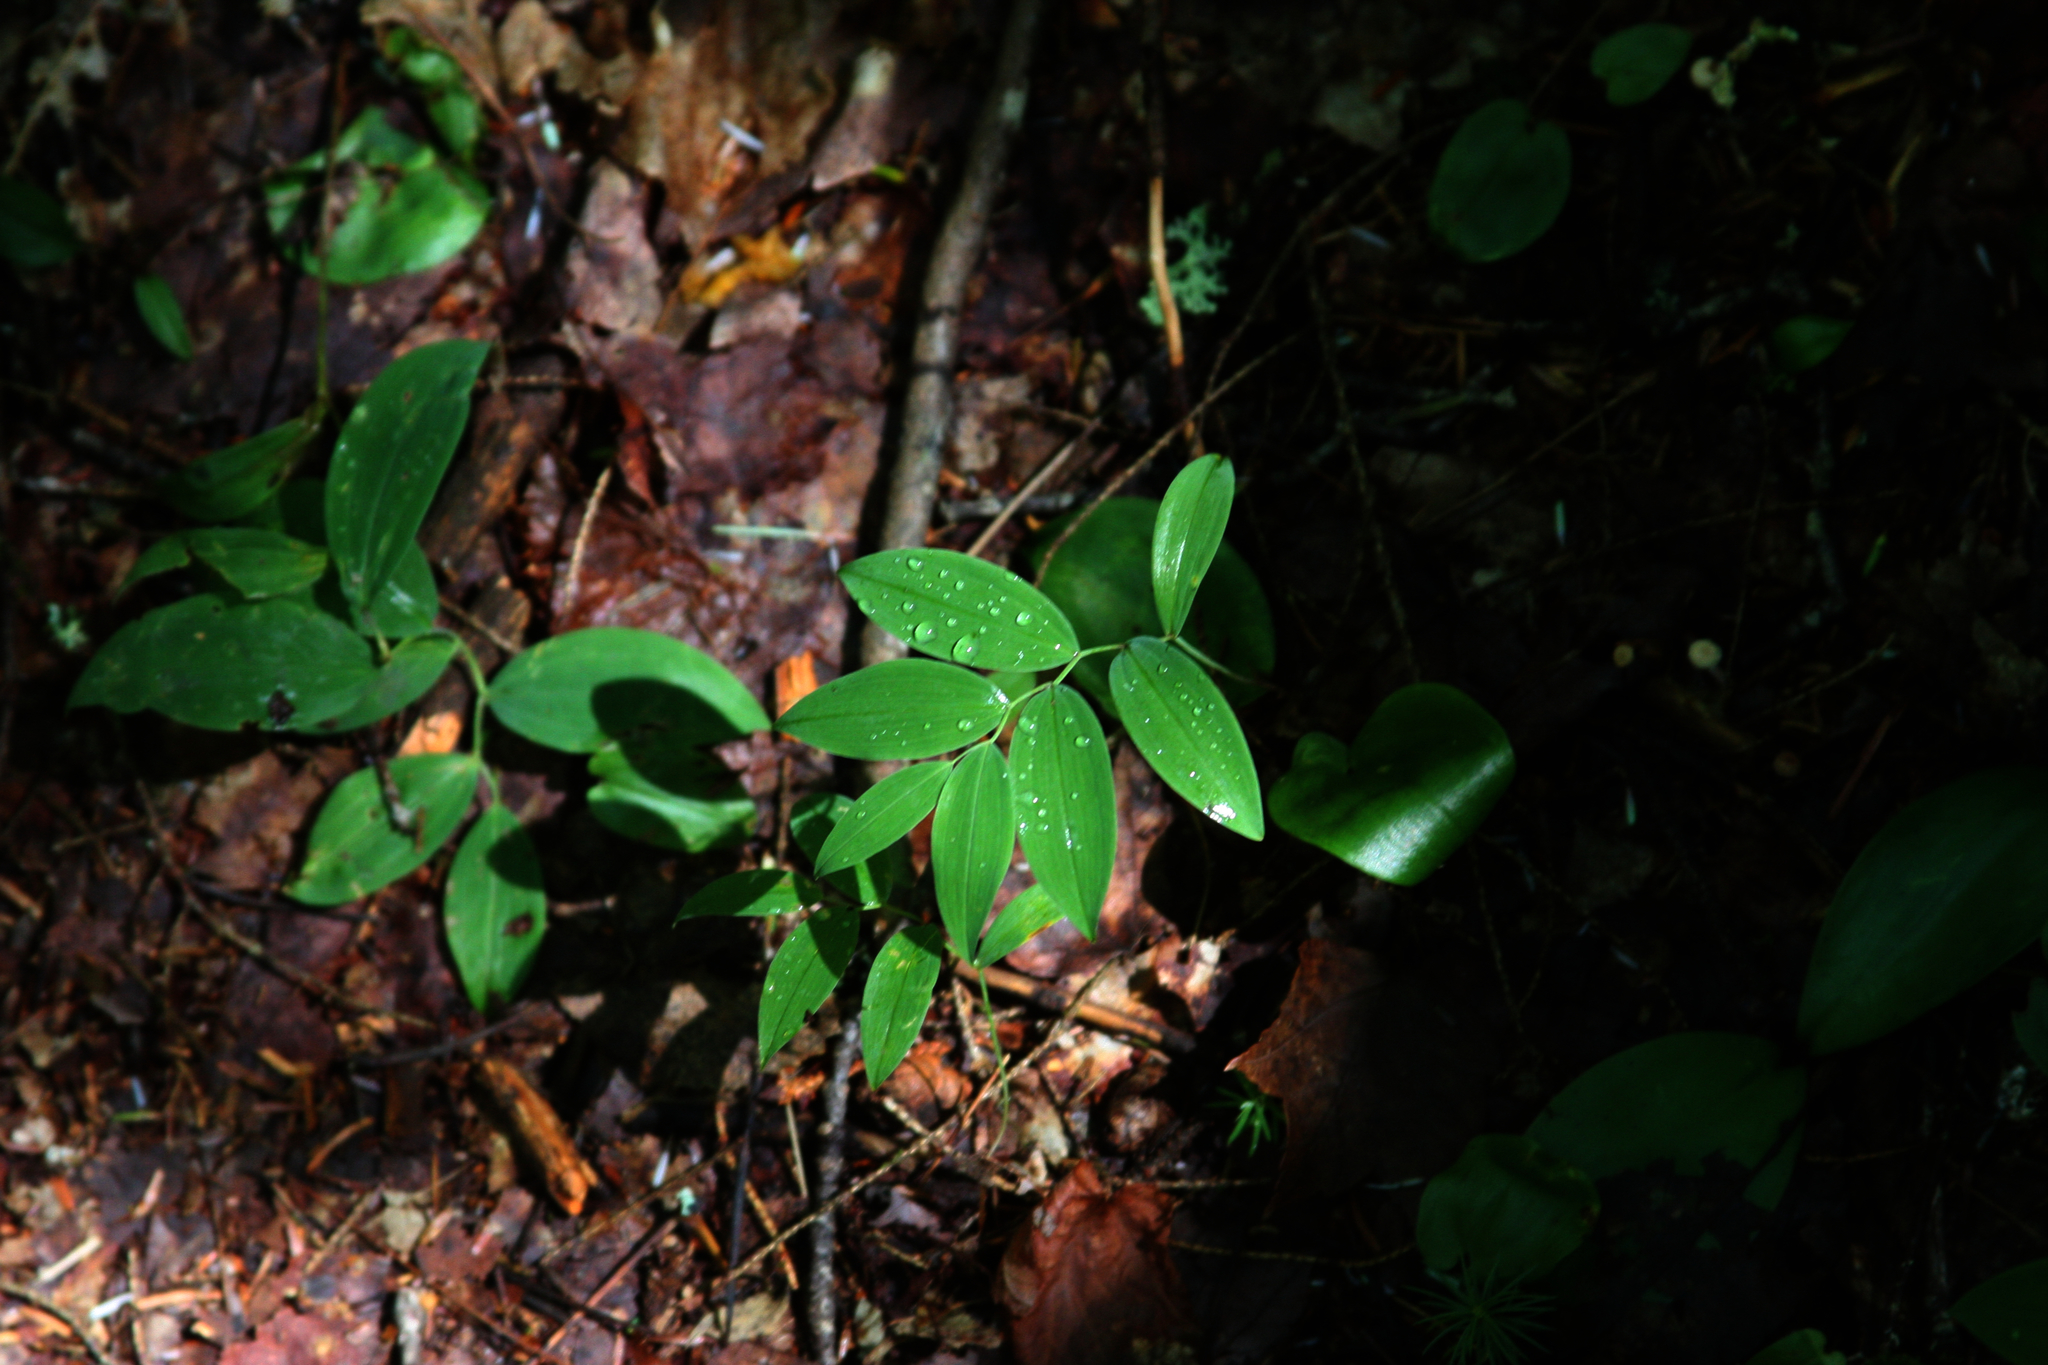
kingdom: Plantae
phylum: Tracheophyta
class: Liliopsida
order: Liliales
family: Colchicaceae
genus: Uvularia
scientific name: Uvularia sessilifolia
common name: Straw-lily
